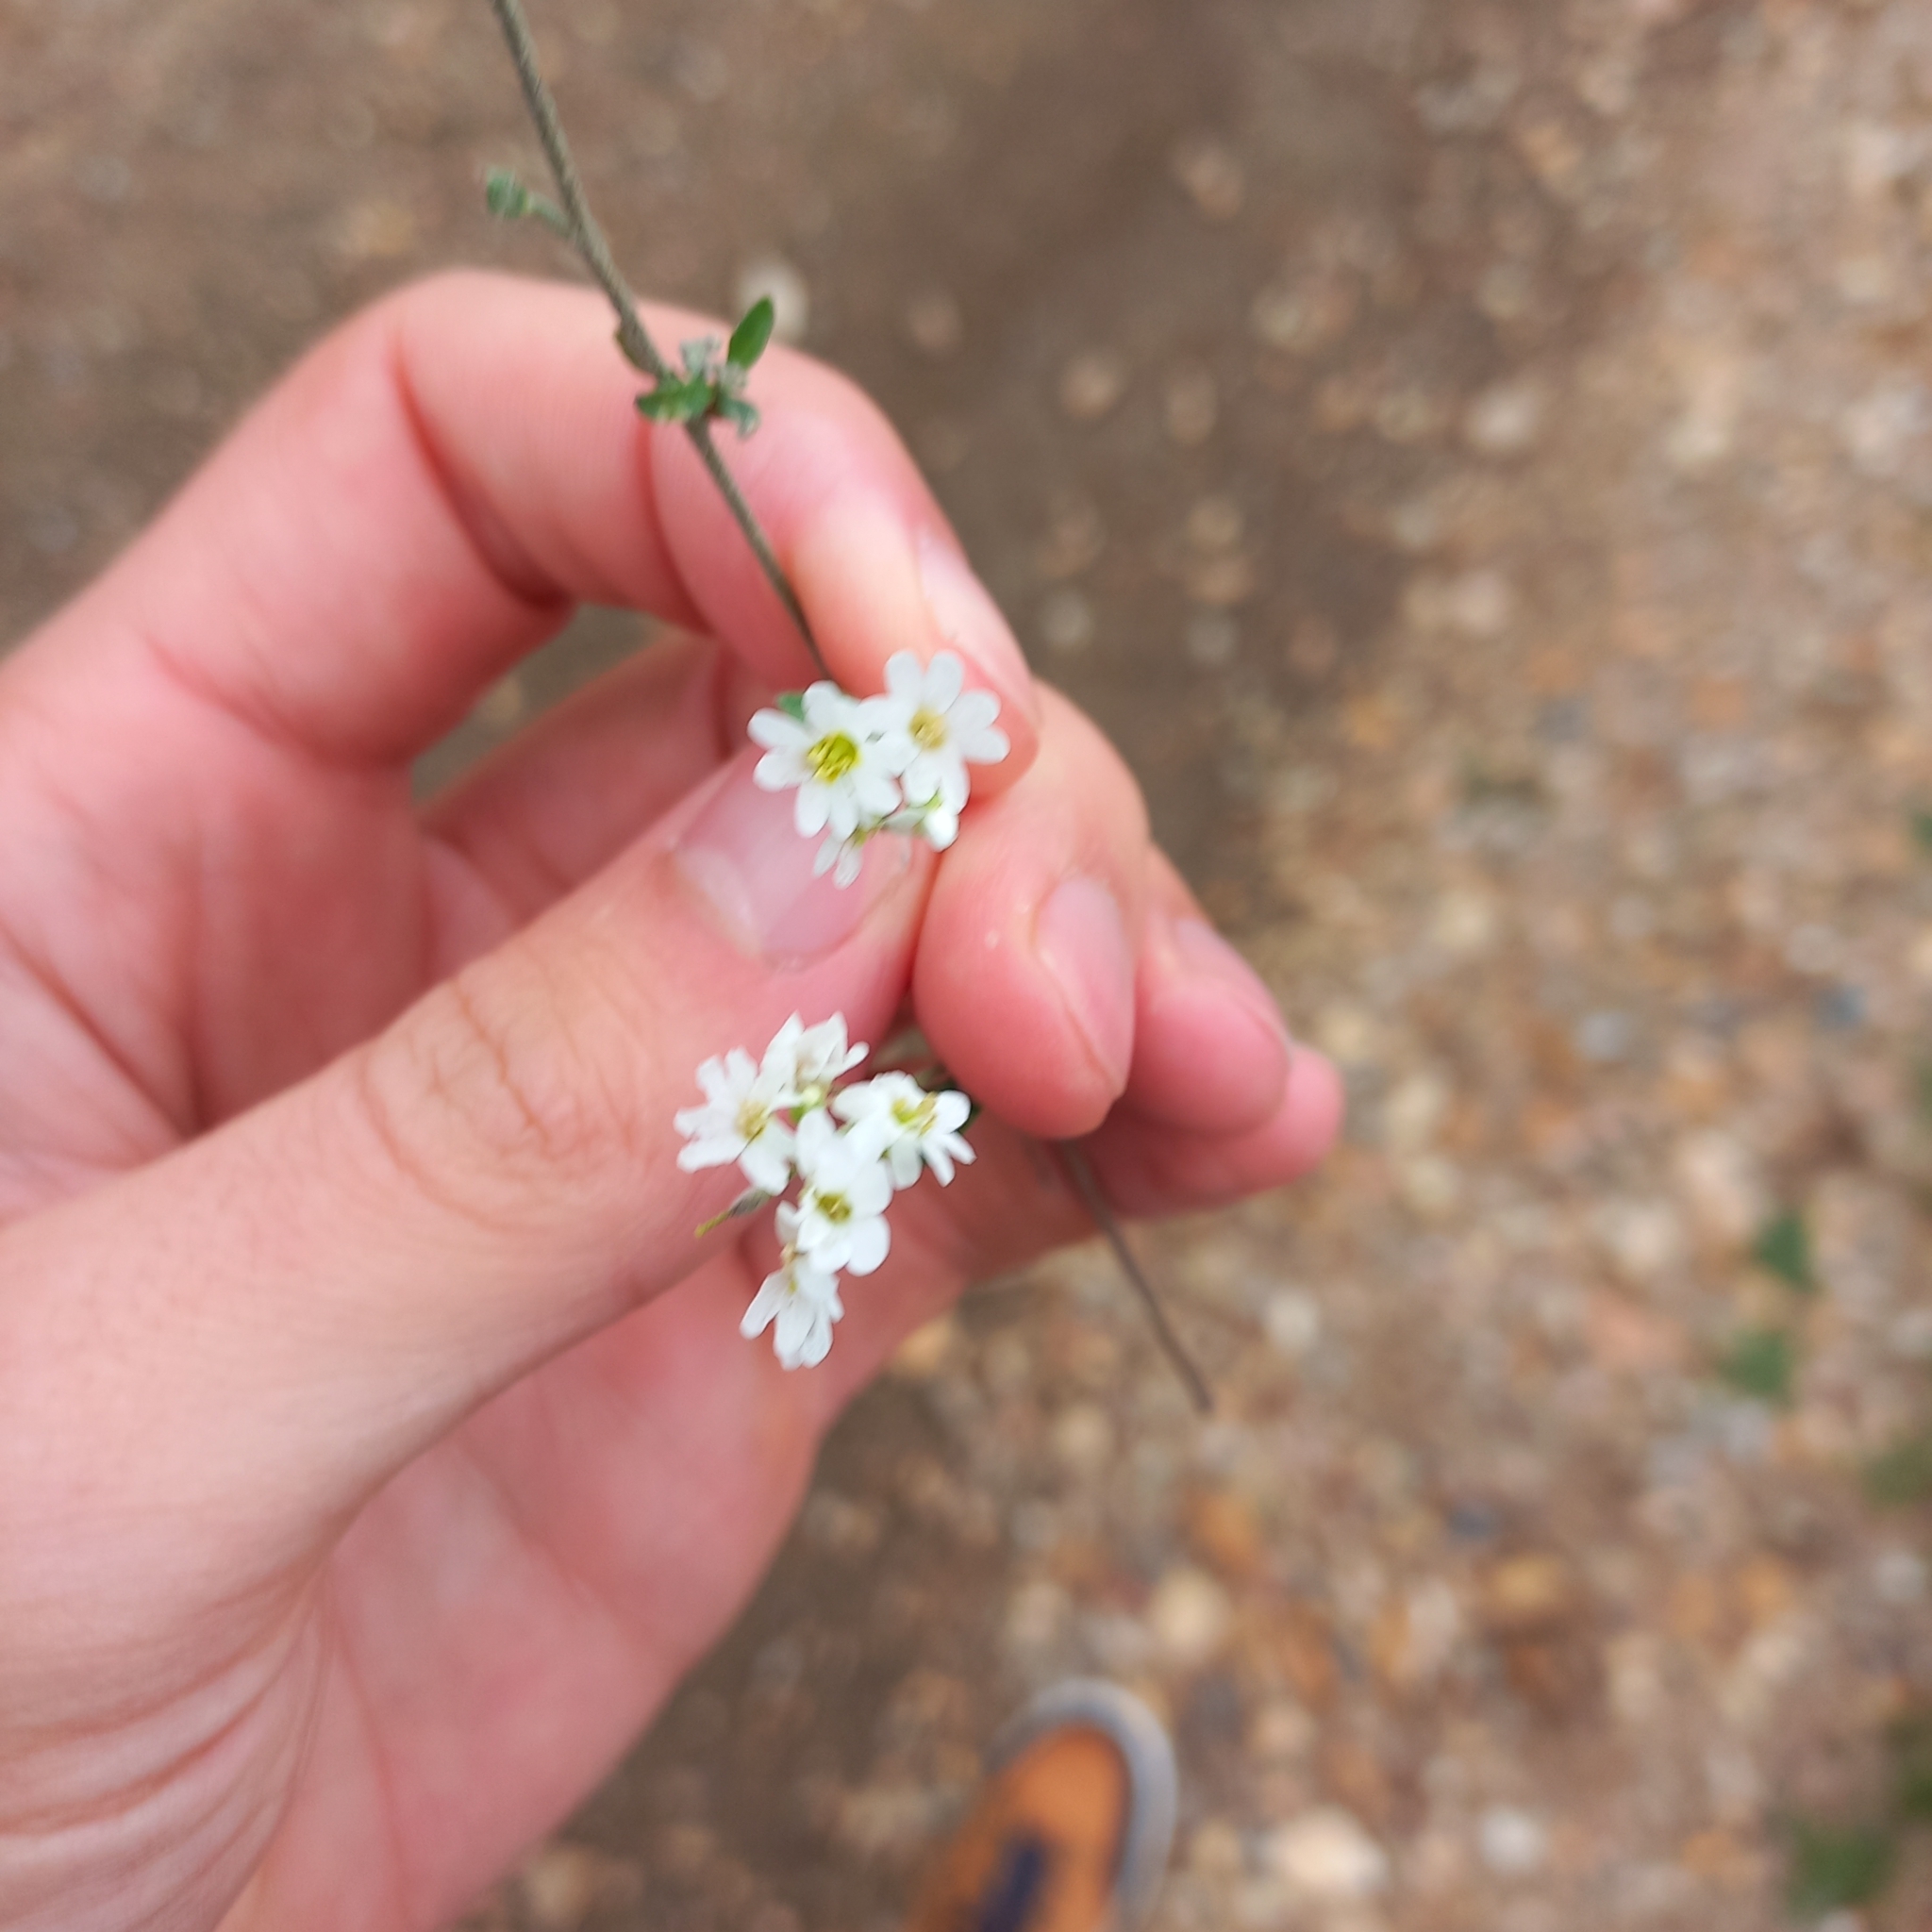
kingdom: Plantae
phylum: Tracheophyta
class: Magnoliopsida
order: Brassicales
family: Brassicaceae
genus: Berteroa
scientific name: Berteroa incana
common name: Hoary alison
